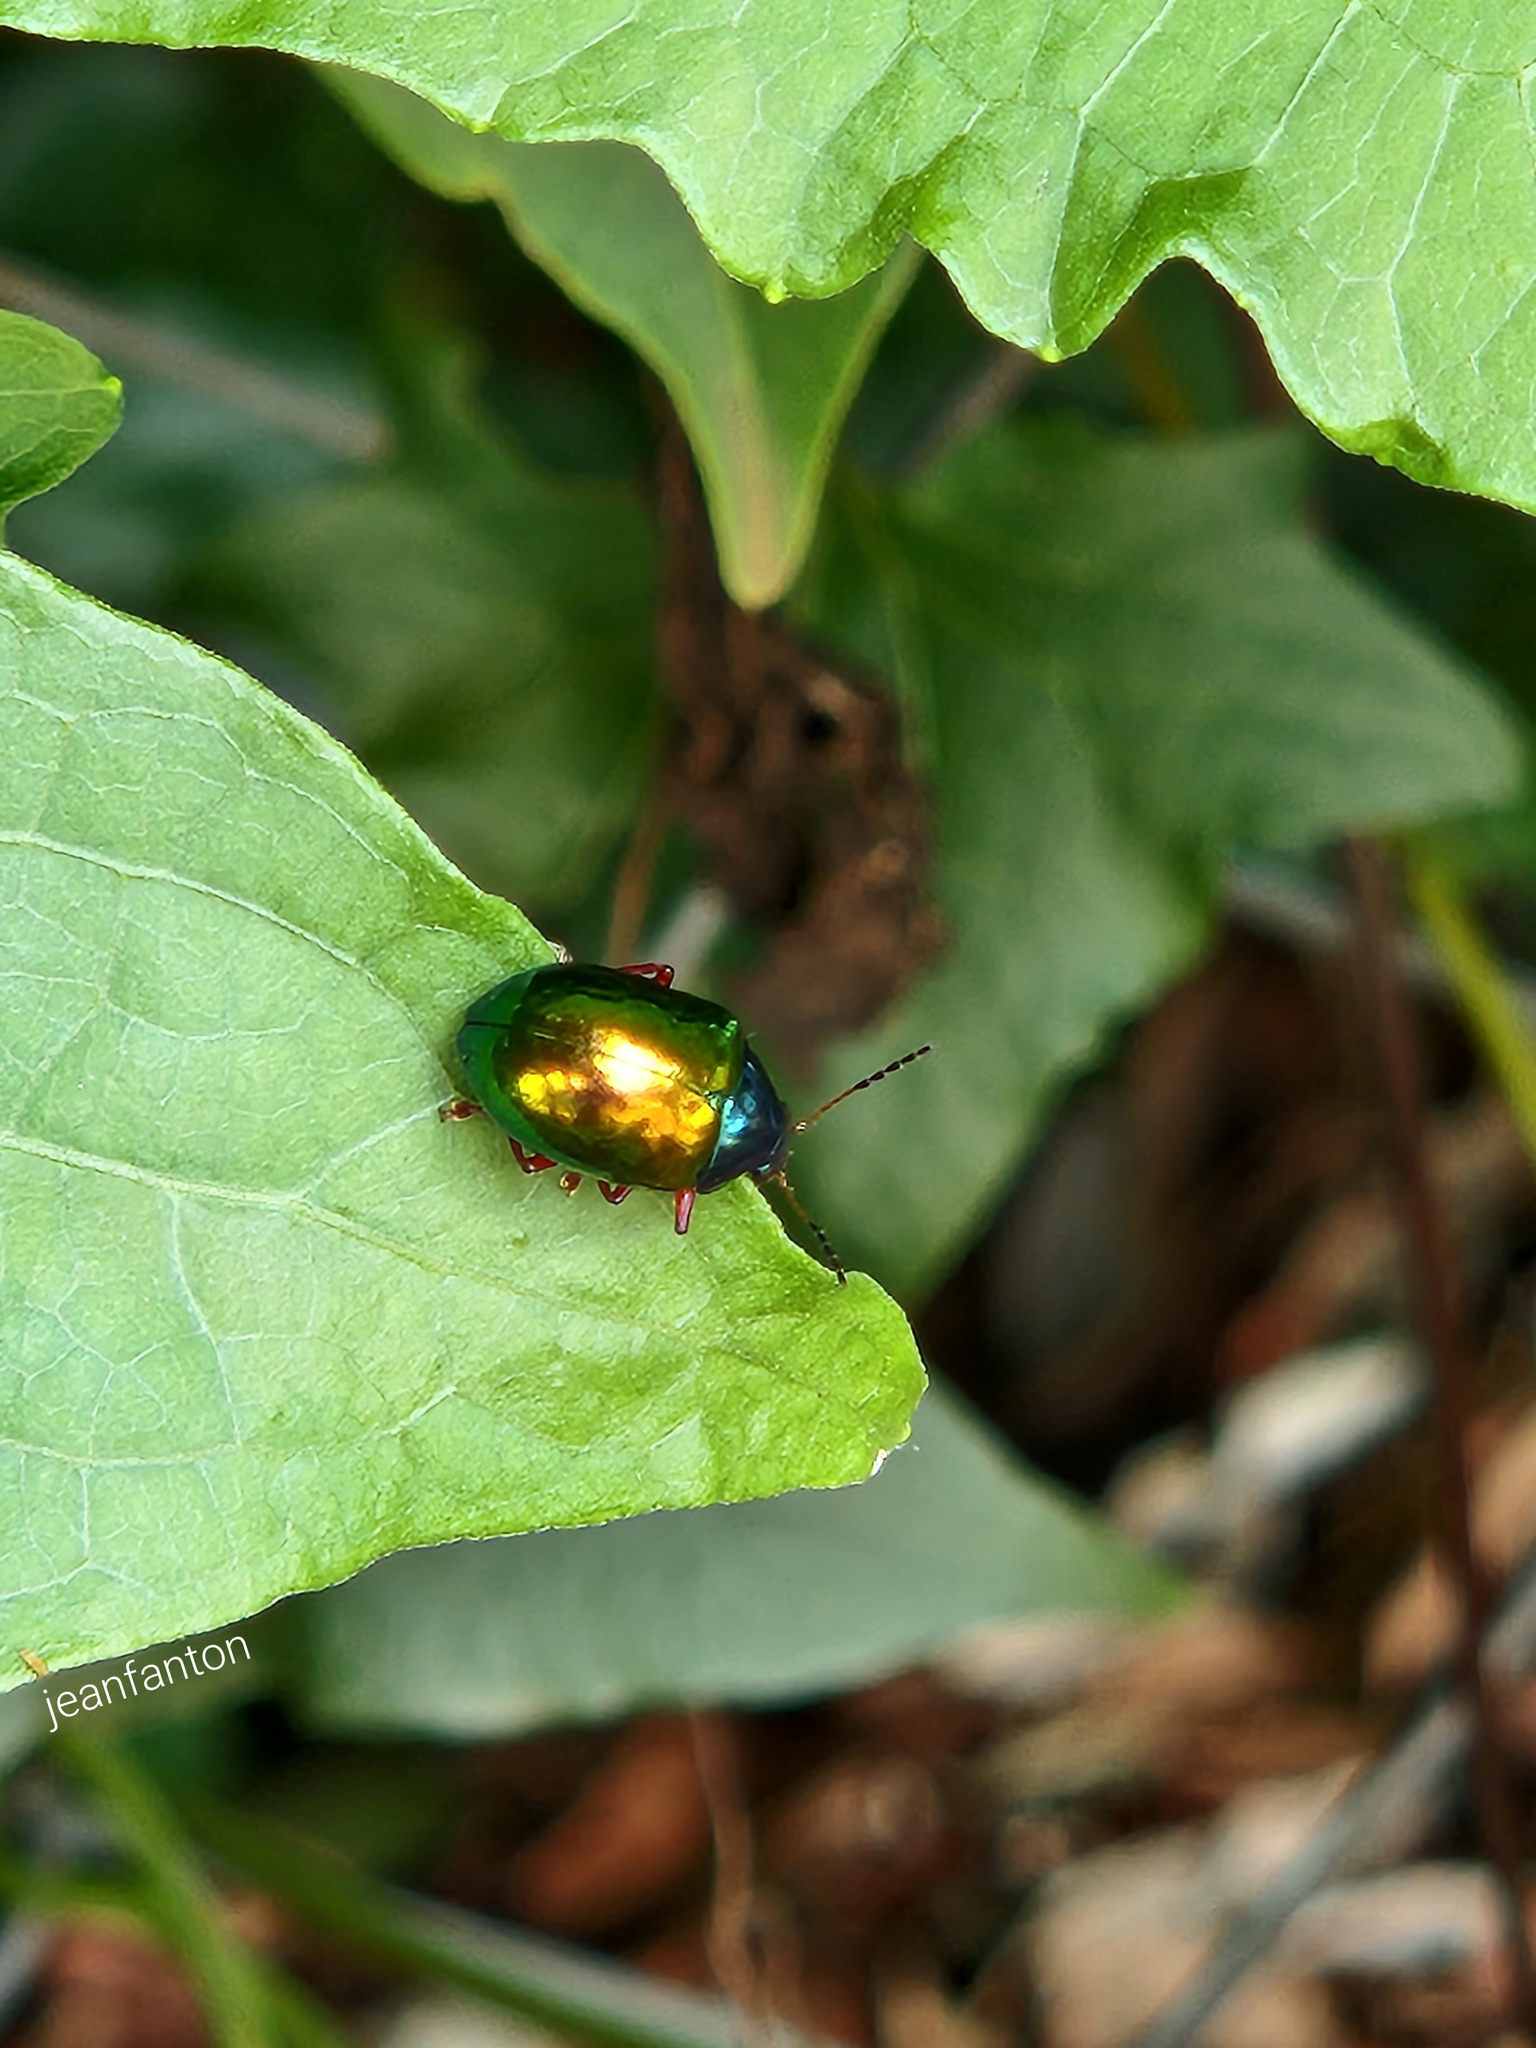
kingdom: Animalia
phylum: Arthropoda
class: Insecta
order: Coleoptera
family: Chrysomelidae
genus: Iphimeis
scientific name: Iphimeis
